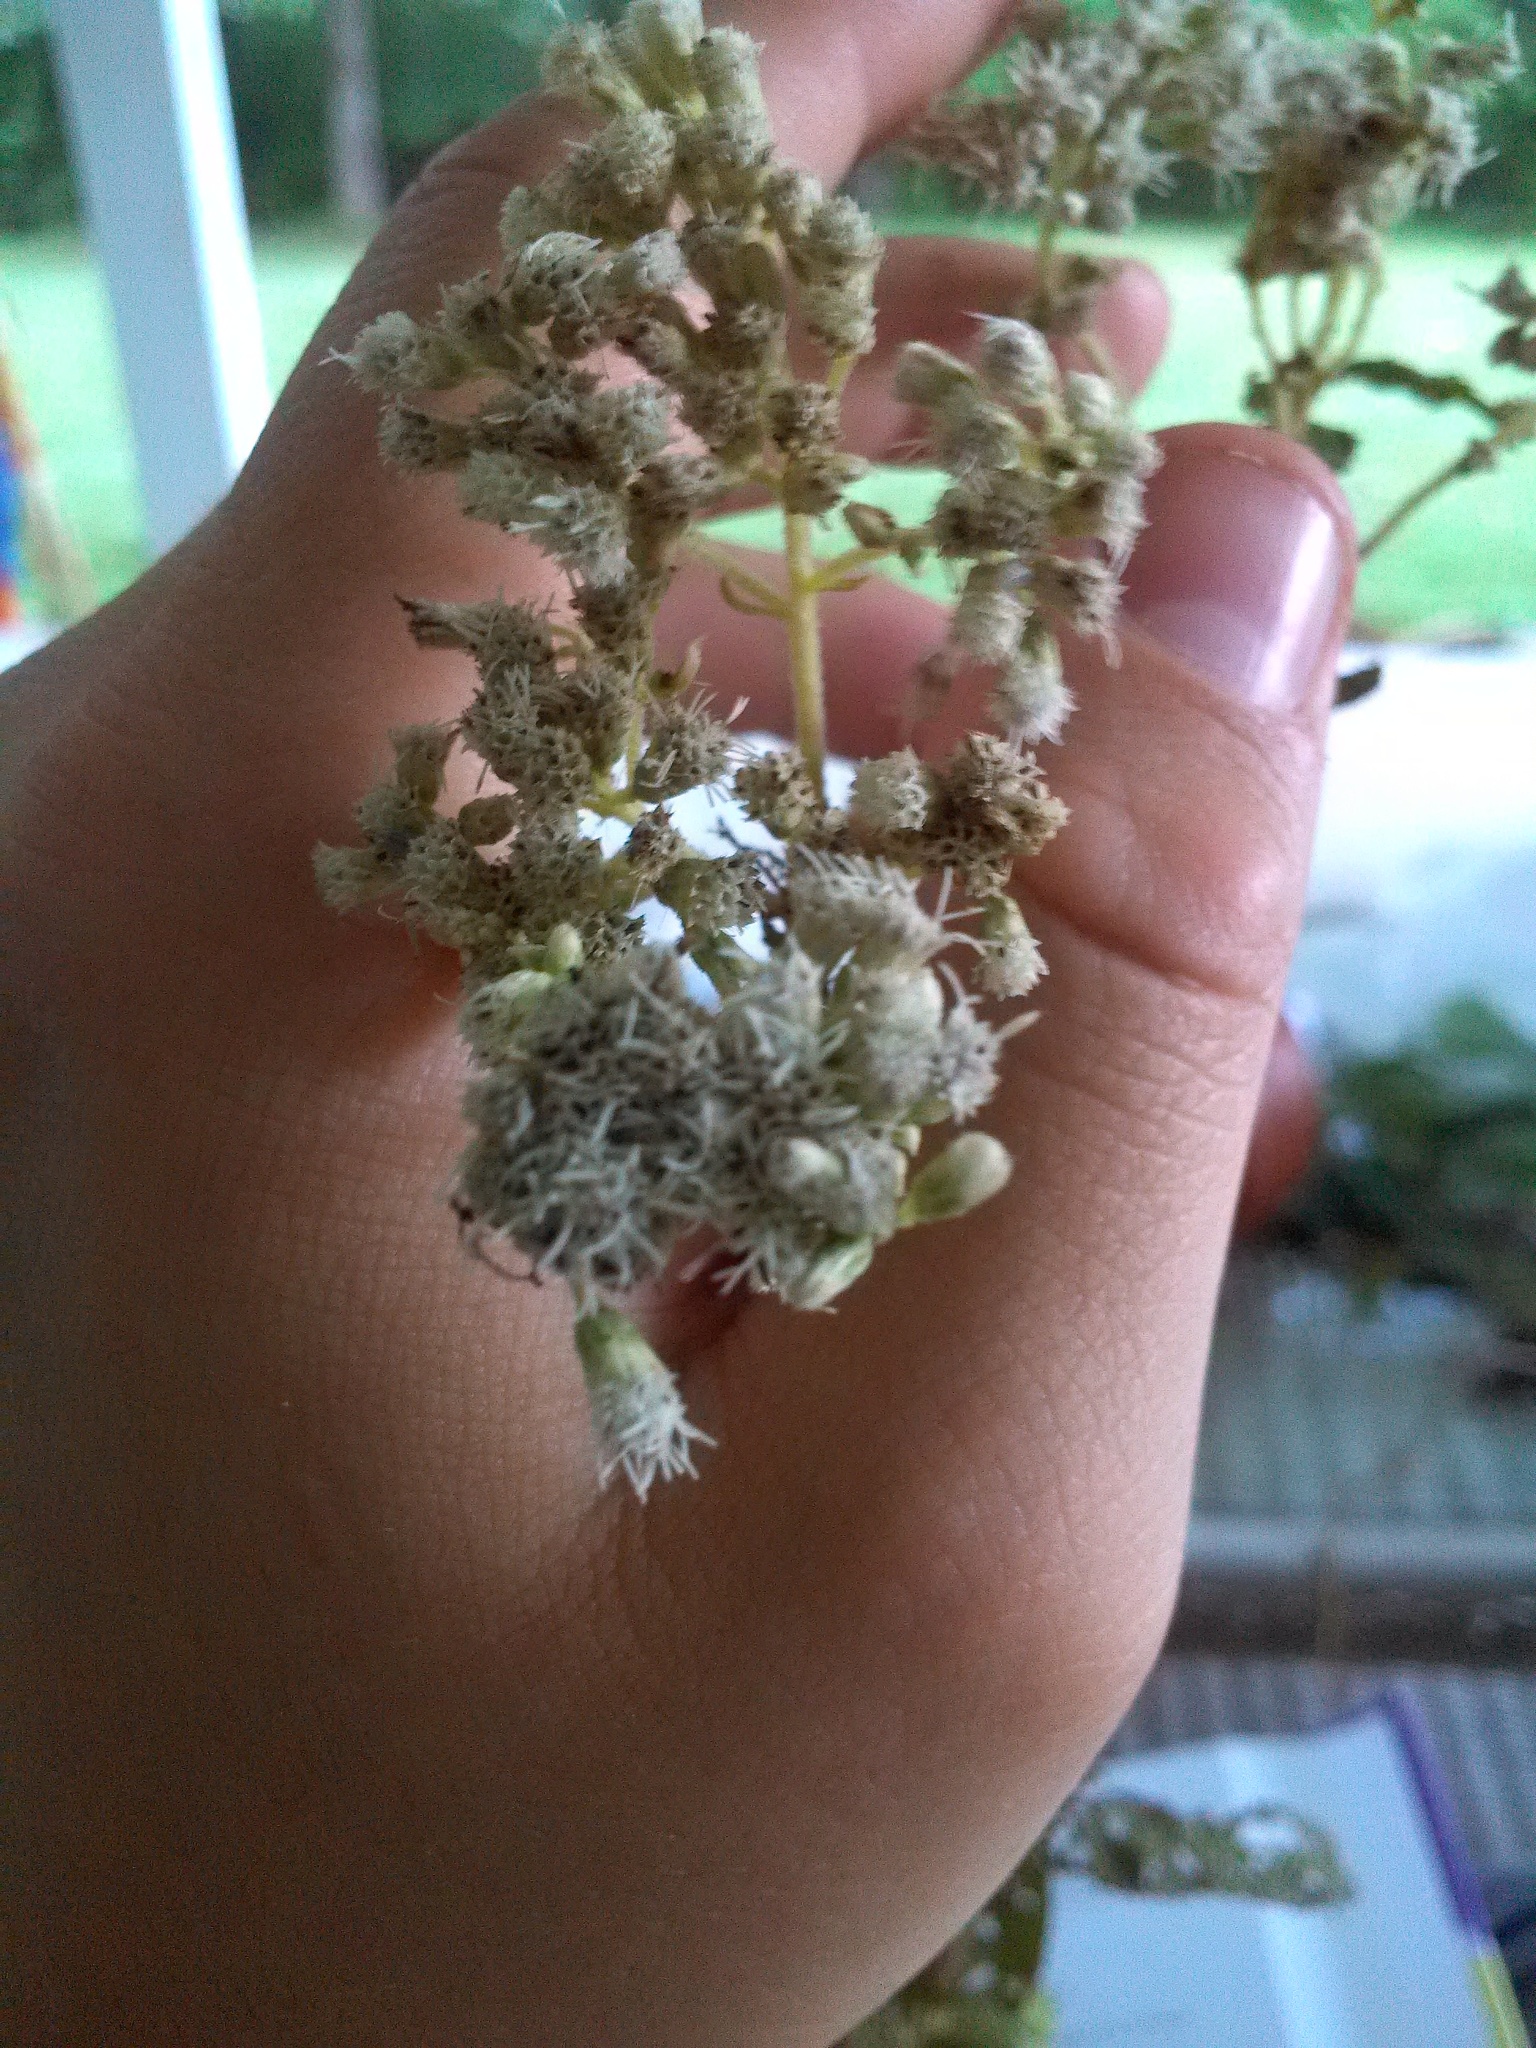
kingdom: Plantae
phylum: Tracheophyta
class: Magnoliopsida
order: Asterales
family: Asteraceae
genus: Eupatorium
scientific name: Eupatorium perfoliatum
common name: Boneset
